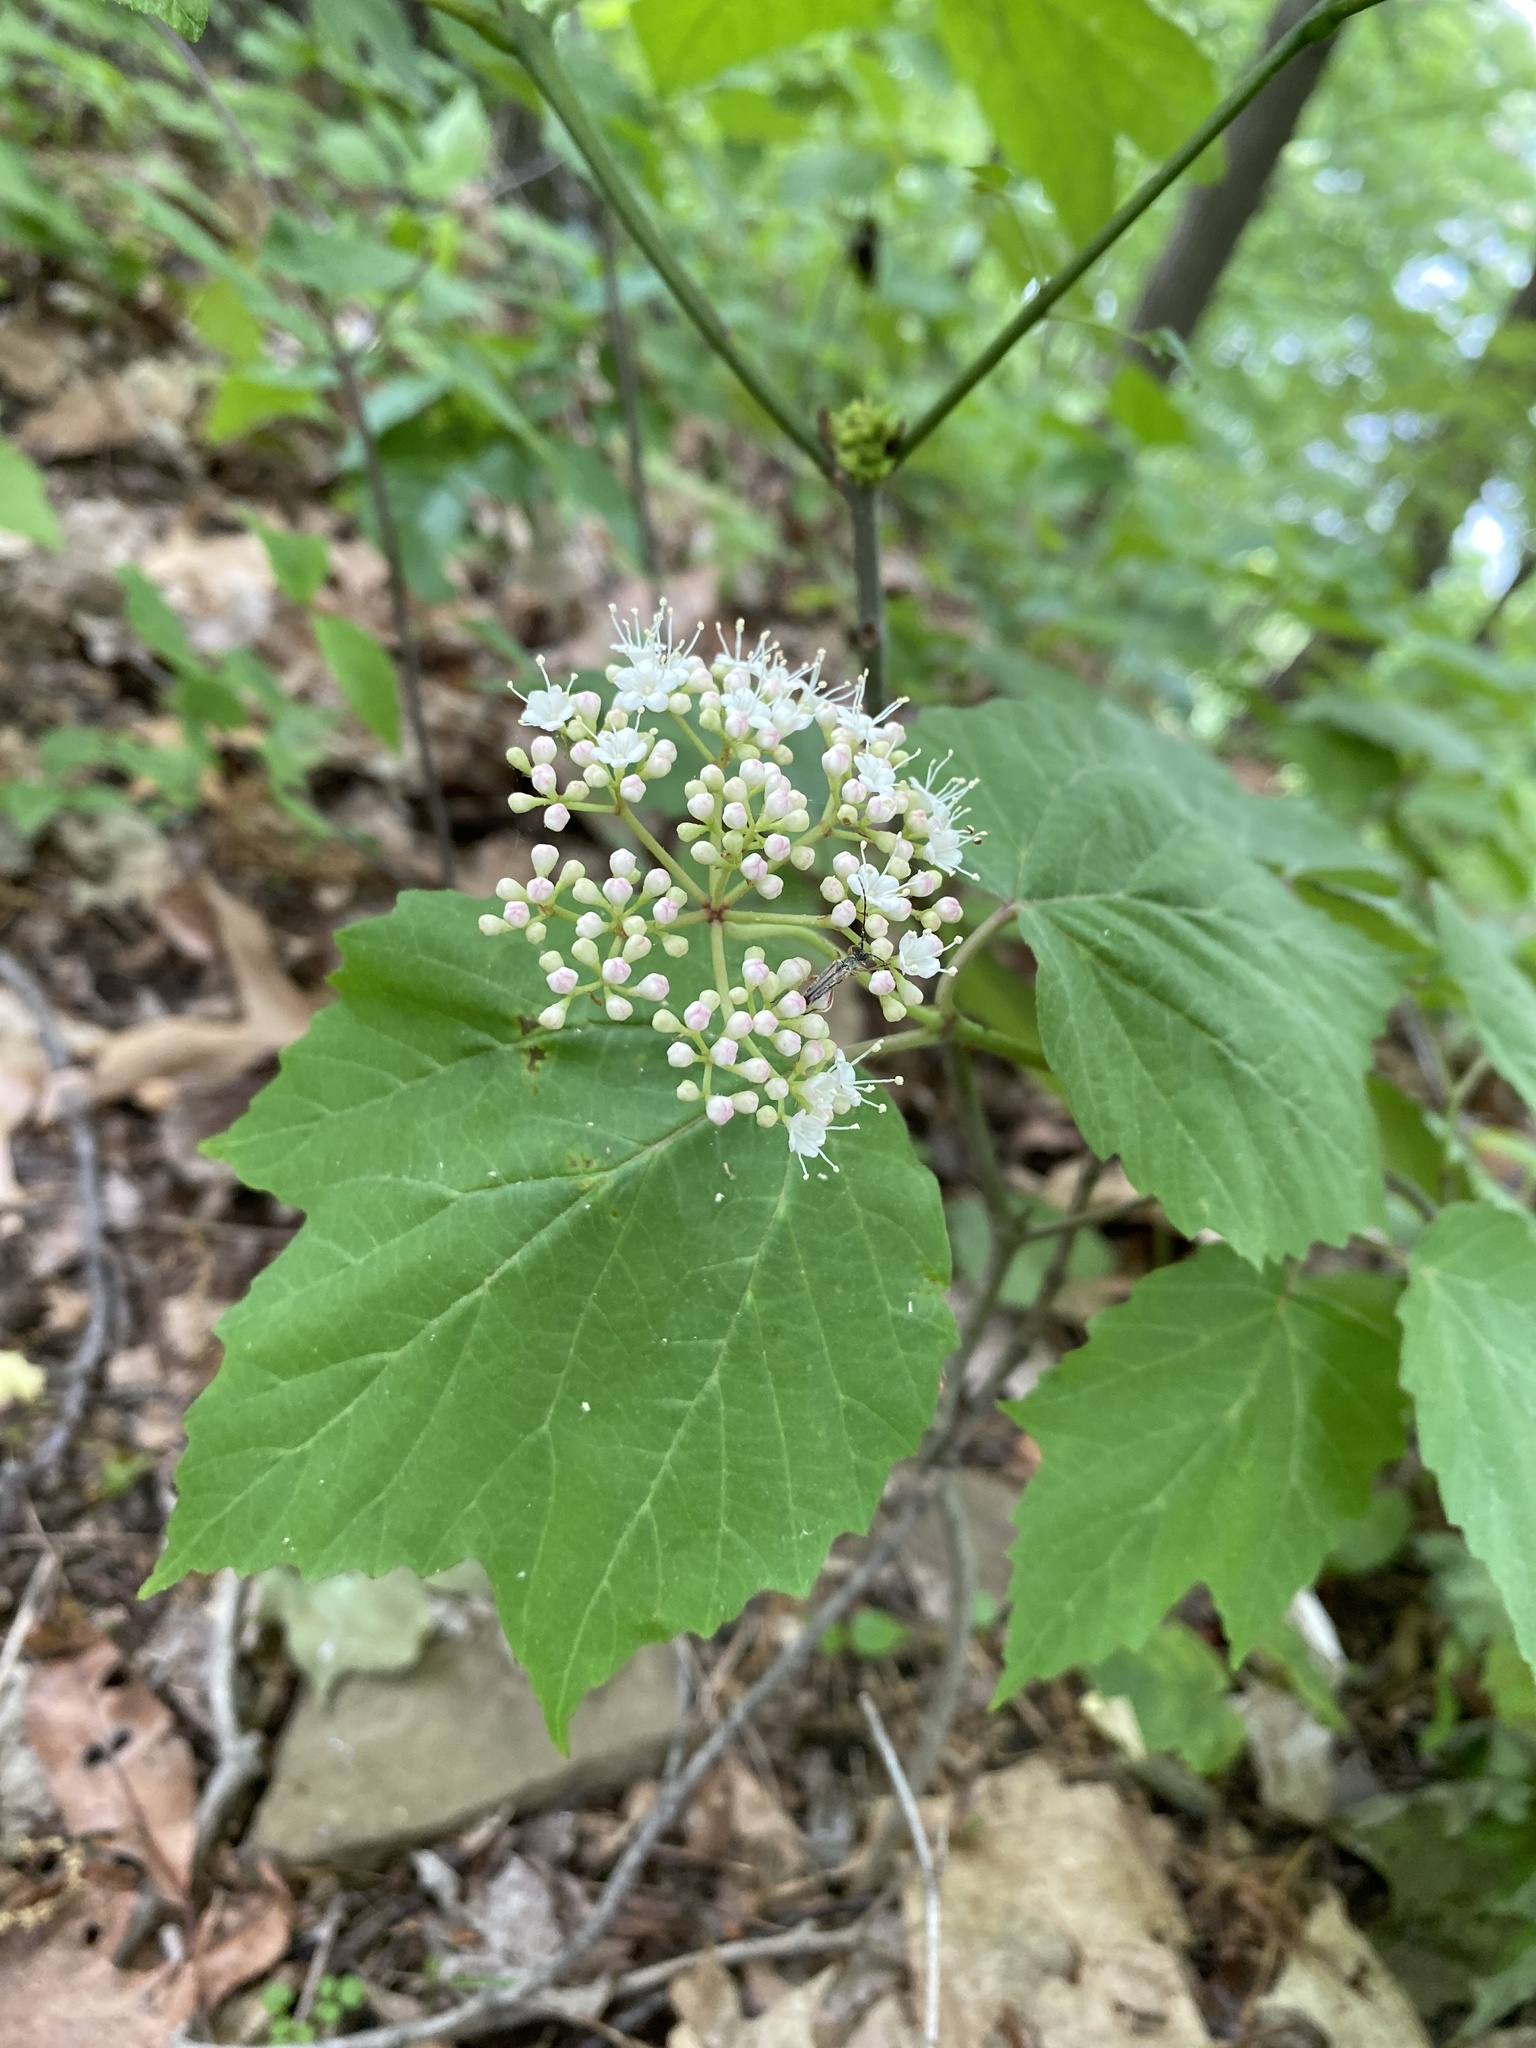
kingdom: Plantae
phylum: Tracheophyta
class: Magnoliopsida
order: Dipsacales
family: Viburnaceae
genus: Viburnum
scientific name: Viburnum acerifolium
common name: Dockmackie
